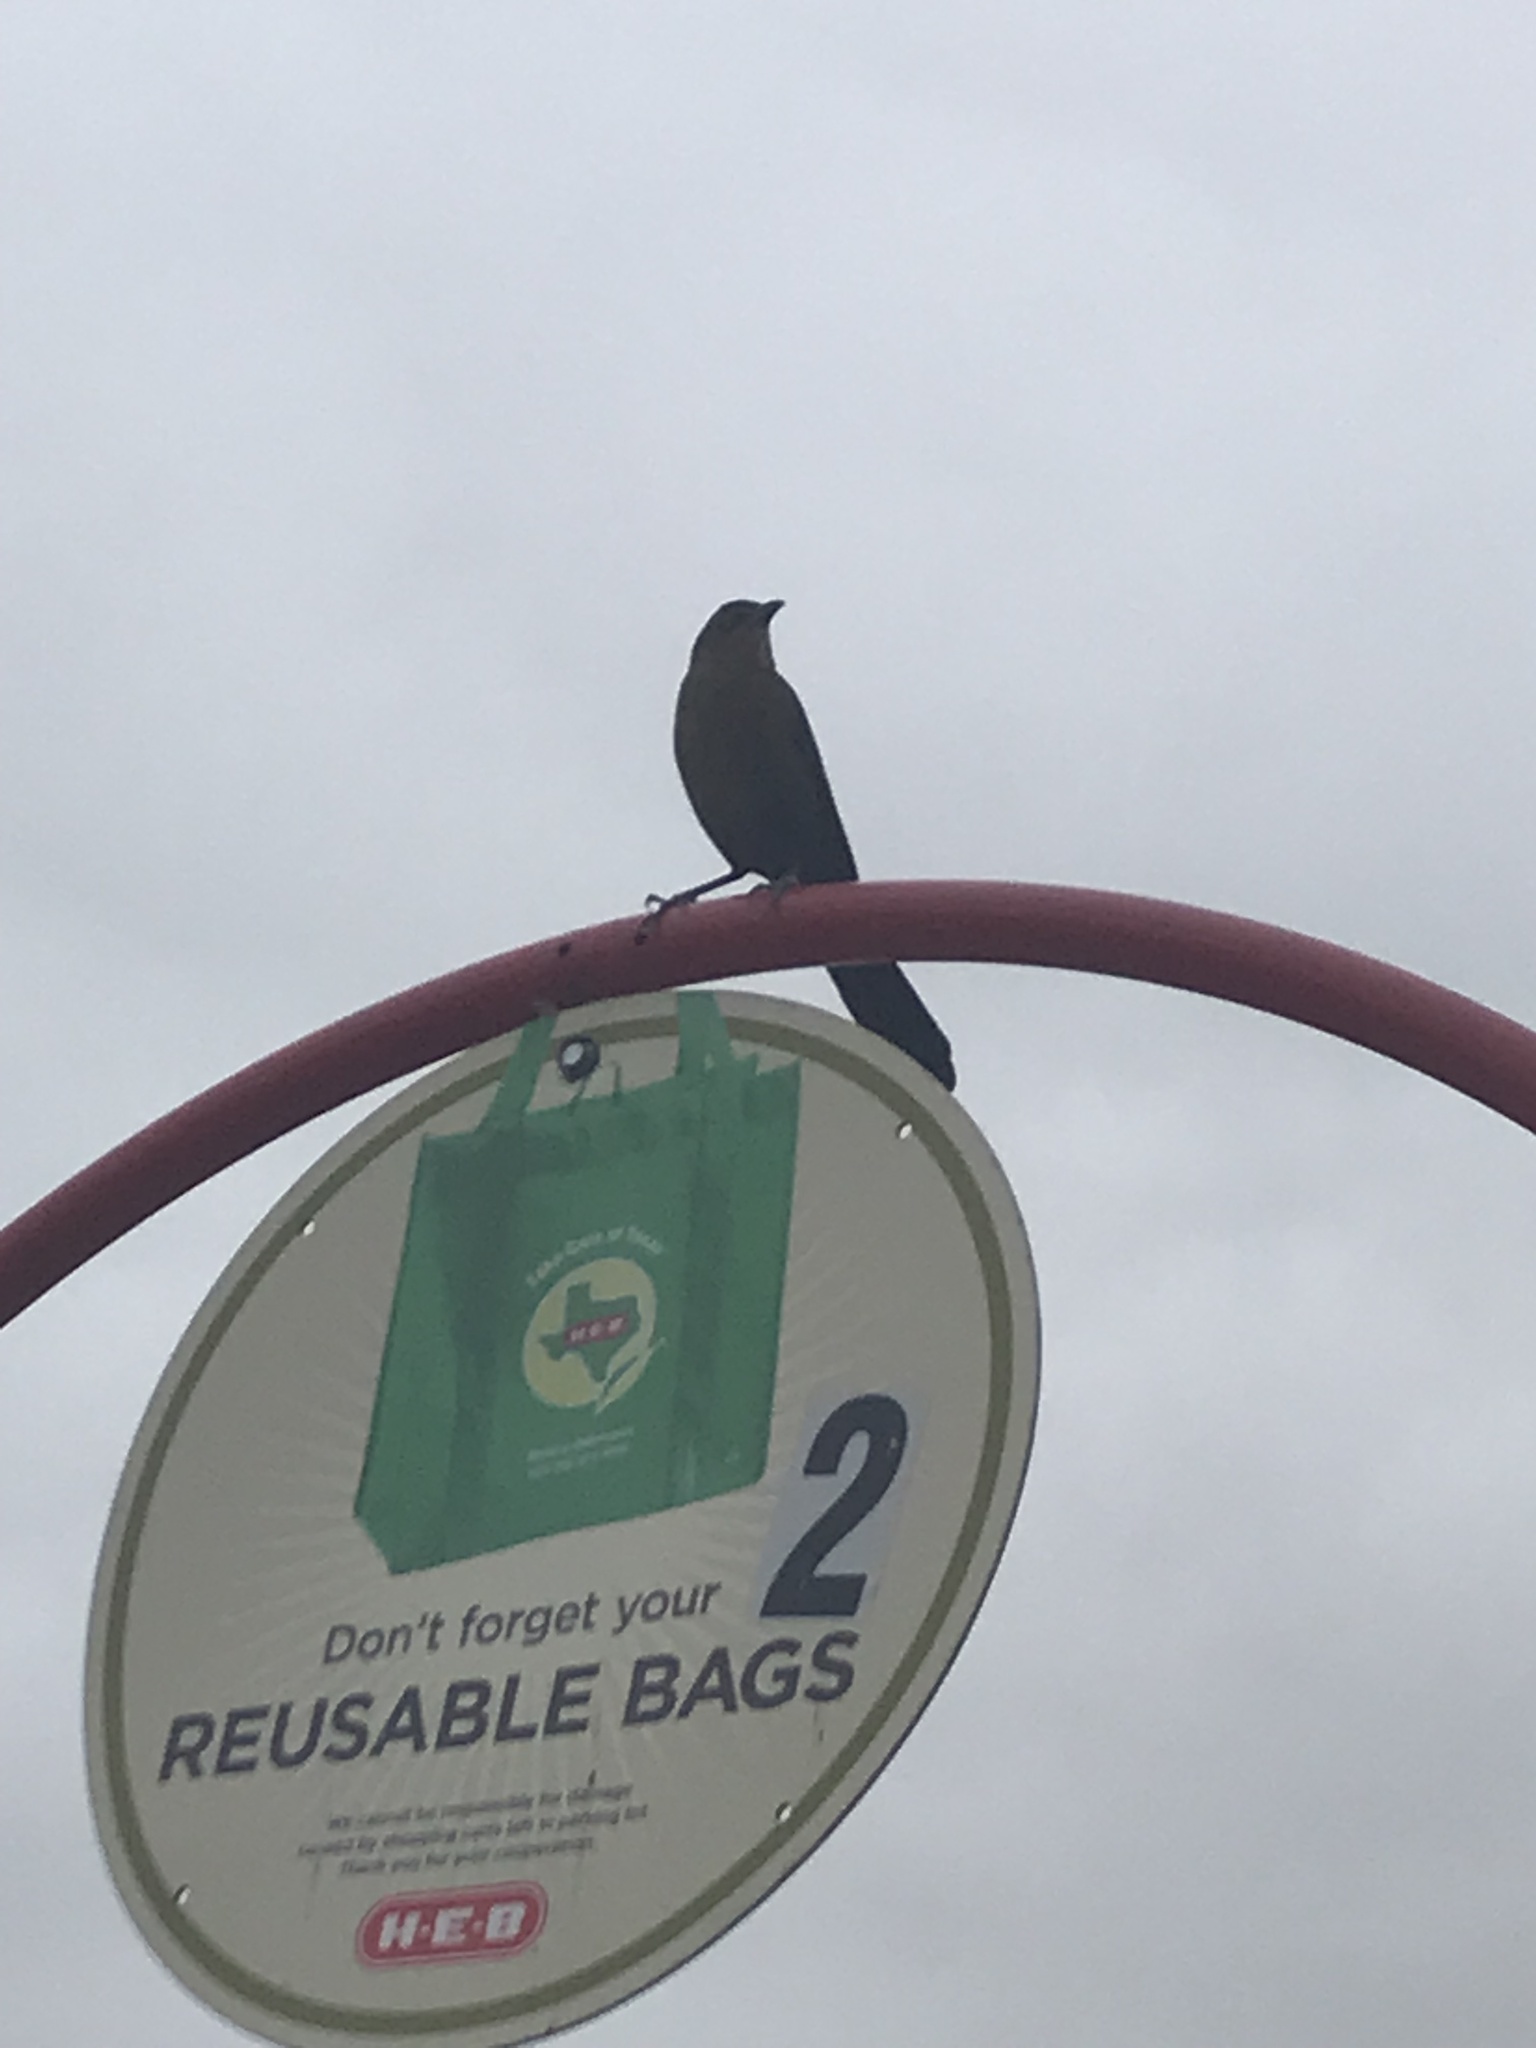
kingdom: Animalia
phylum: Chordata
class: Aves
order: Passeriformes
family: Icteridae
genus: Quiscalus
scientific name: Quiscalus mexicanus
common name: Great-tailed grackle
